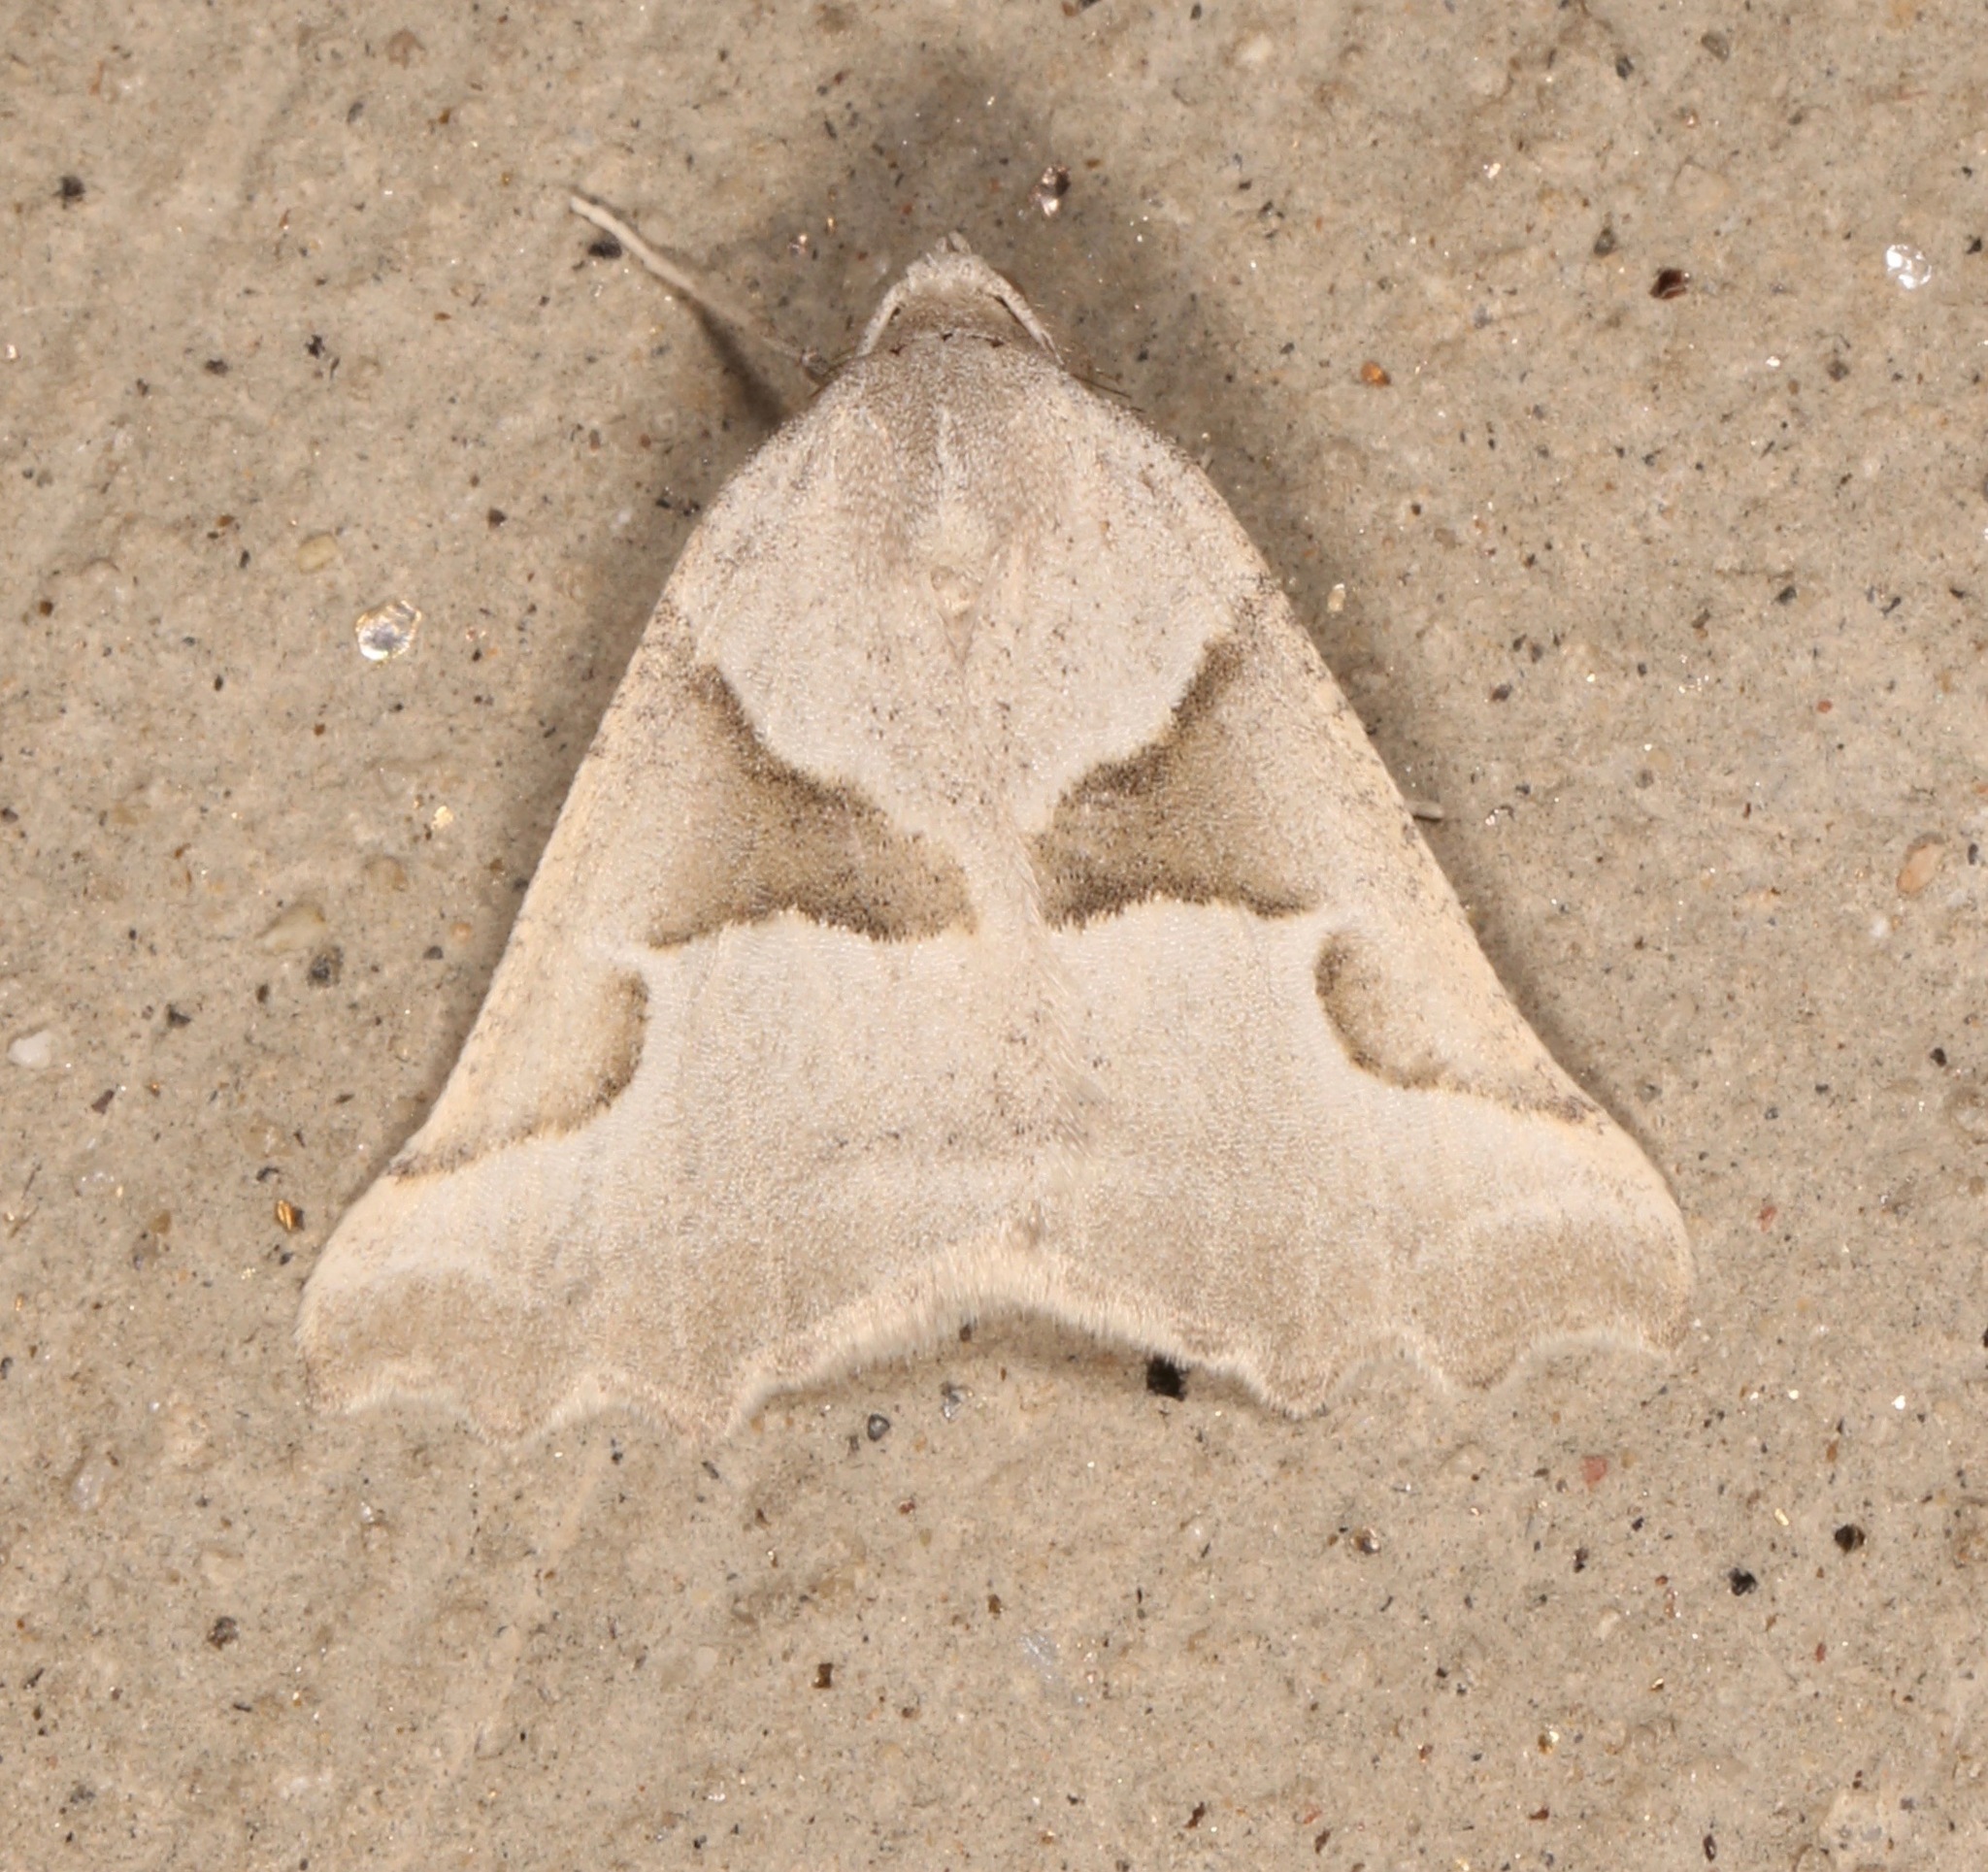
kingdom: Animalia
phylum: Arthropoda
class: Insecta
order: Lepidoptera
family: Geometridae
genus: Plataea
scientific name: Plataea calcaria
